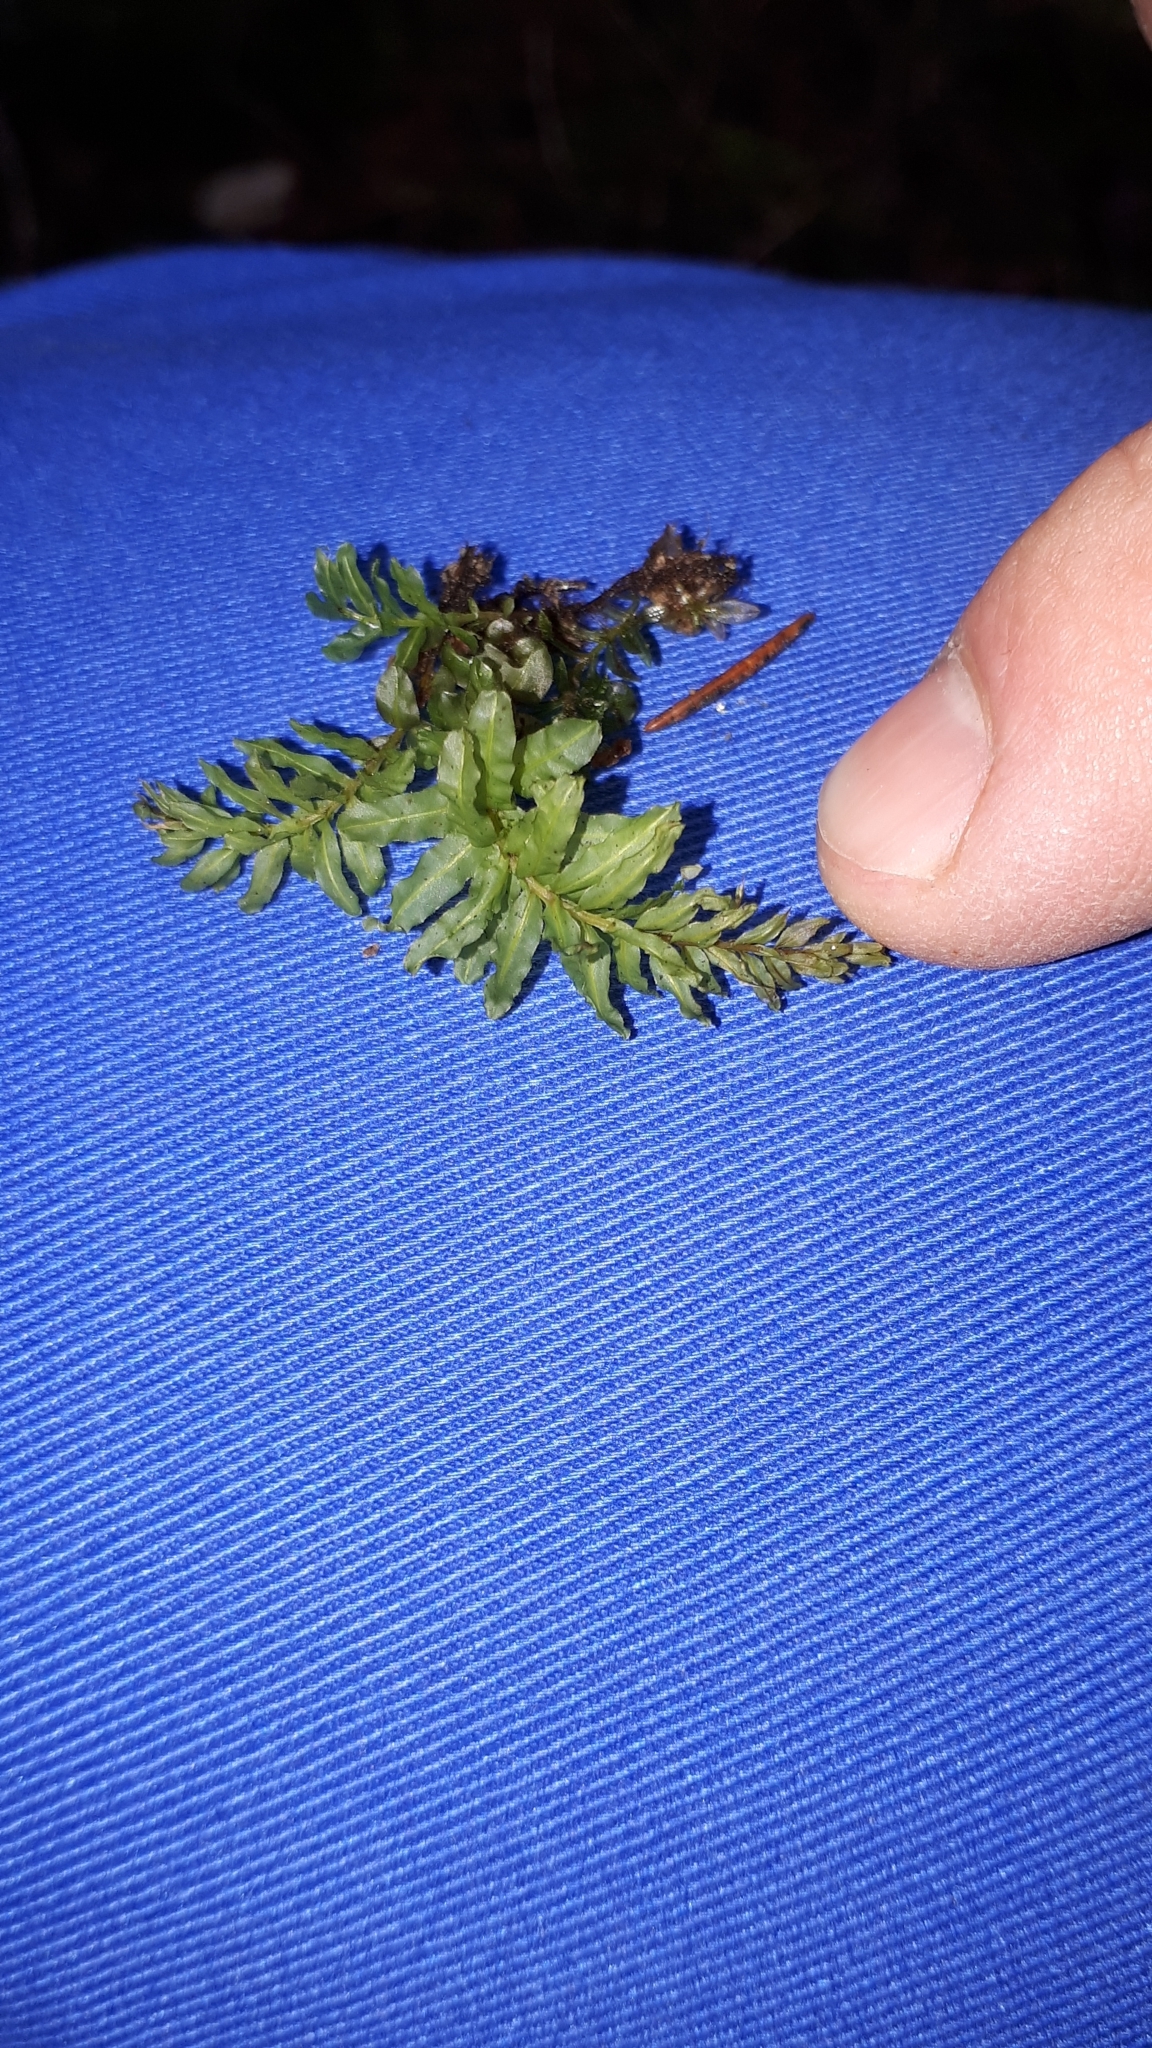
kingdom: Plantae
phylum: Bryophyta
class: Bryopsida
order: Bryales
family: Mniaceae
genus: Plagiomnium
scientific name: Plagiomnium undulatum
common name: Hart's-tongue thyme-moss
